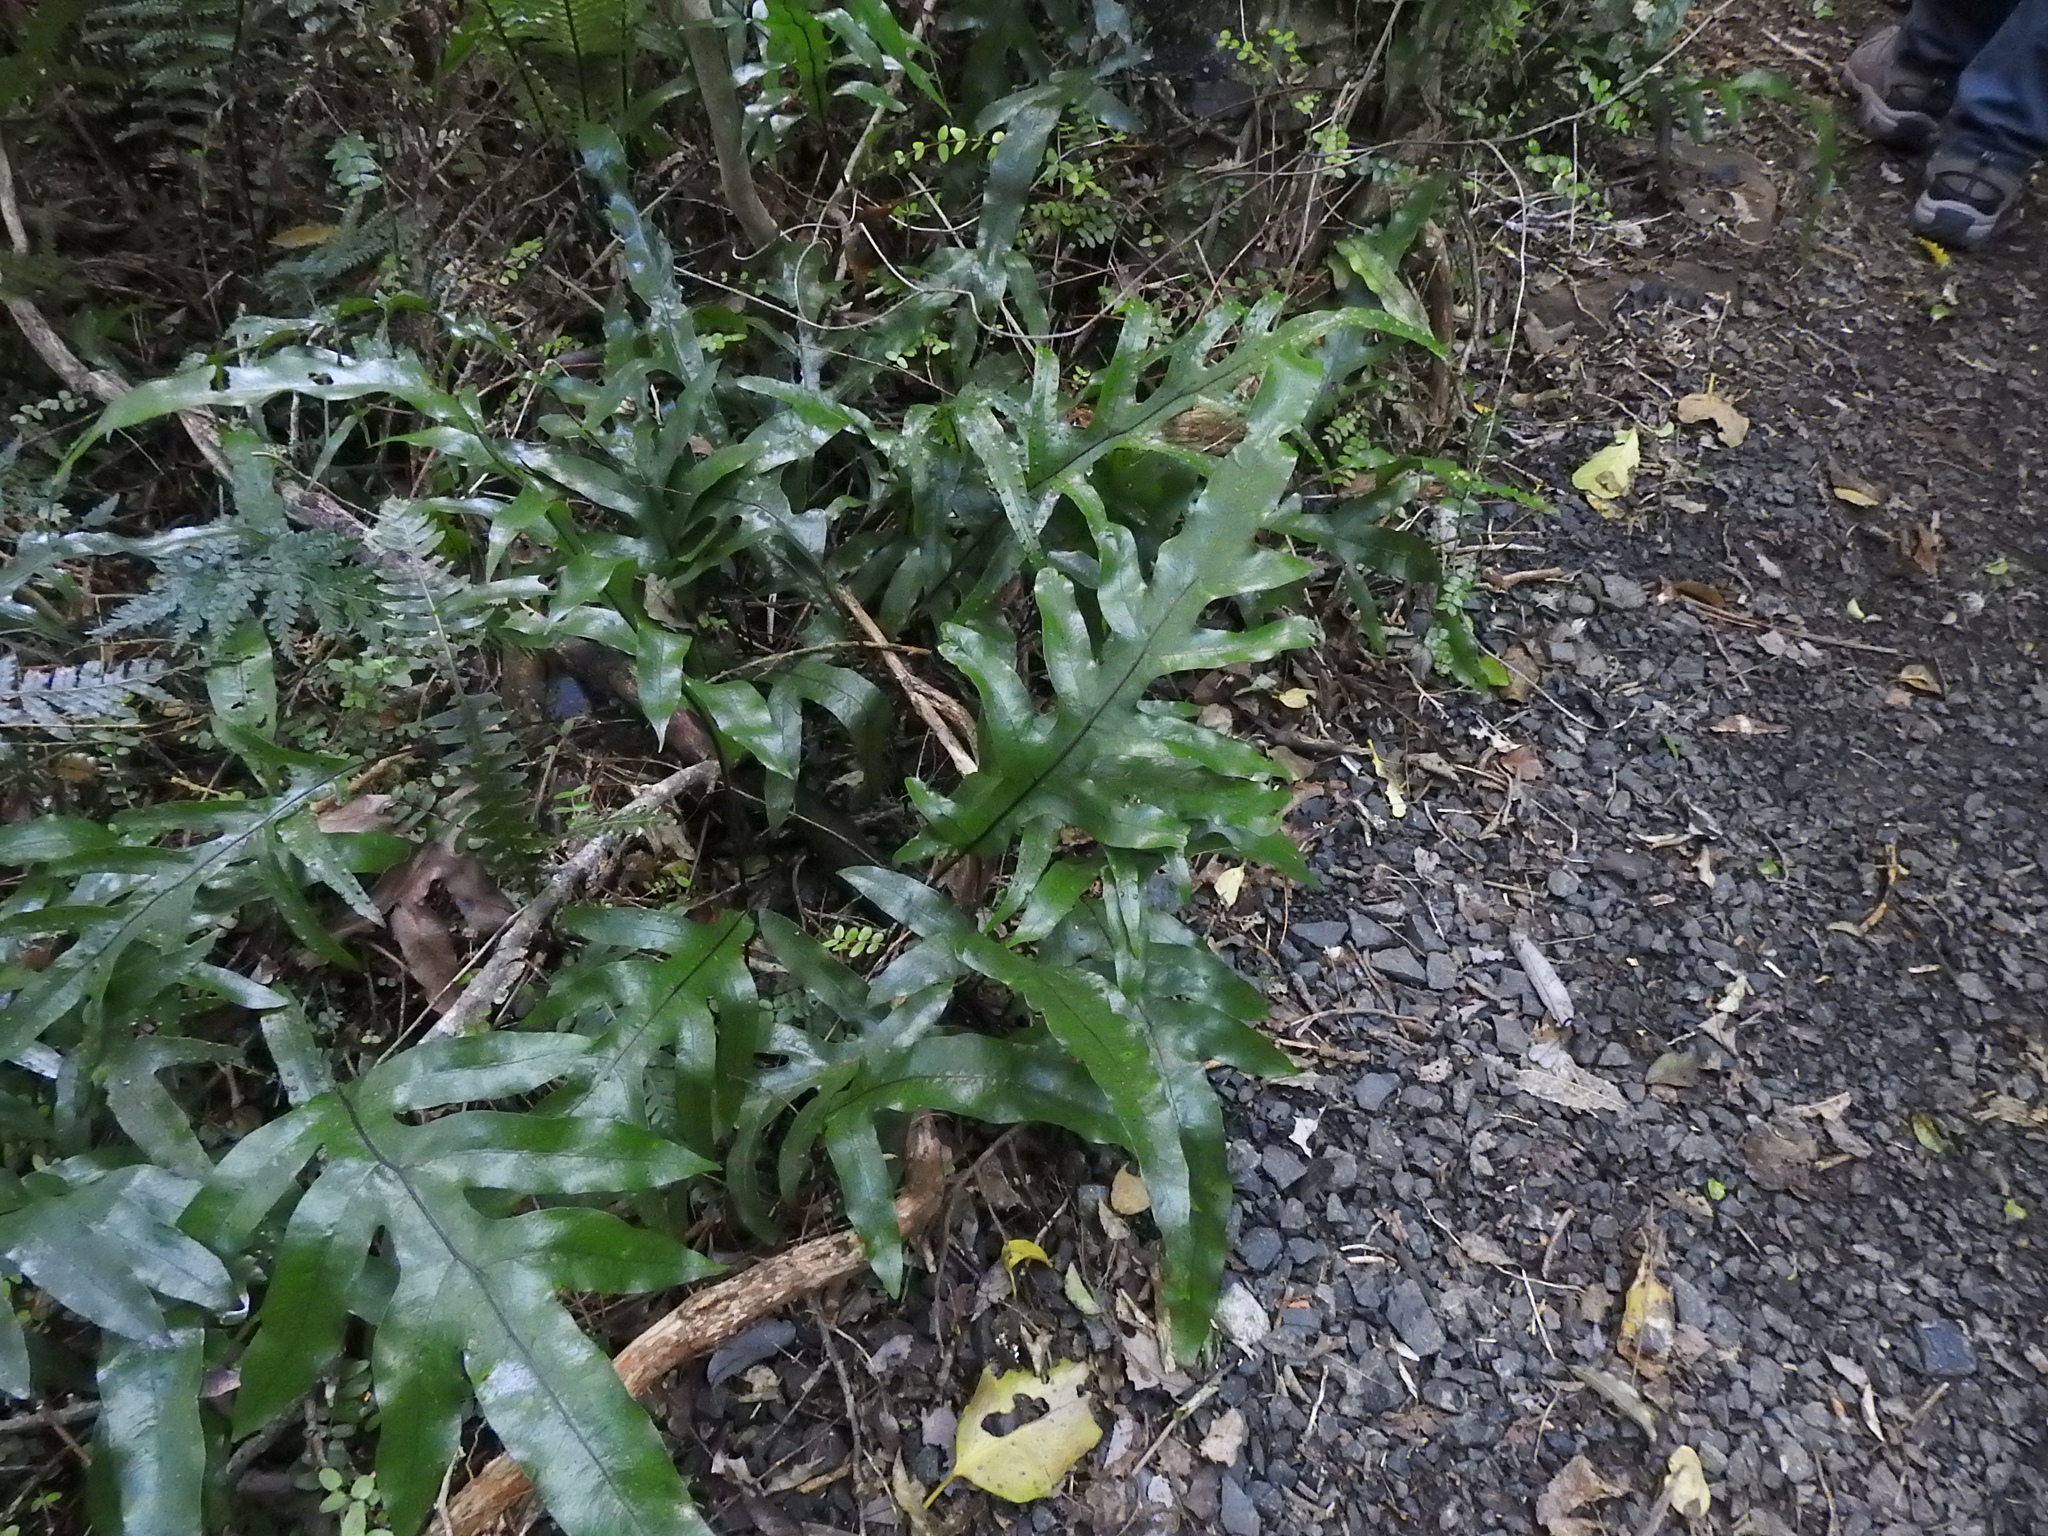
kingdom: Plantae
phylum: Tracheophyta
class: Polypodiopsida
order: Polypodiales
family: Polypodiaceae
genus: Lecanopteris
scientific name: Lecanopteris pustulata
